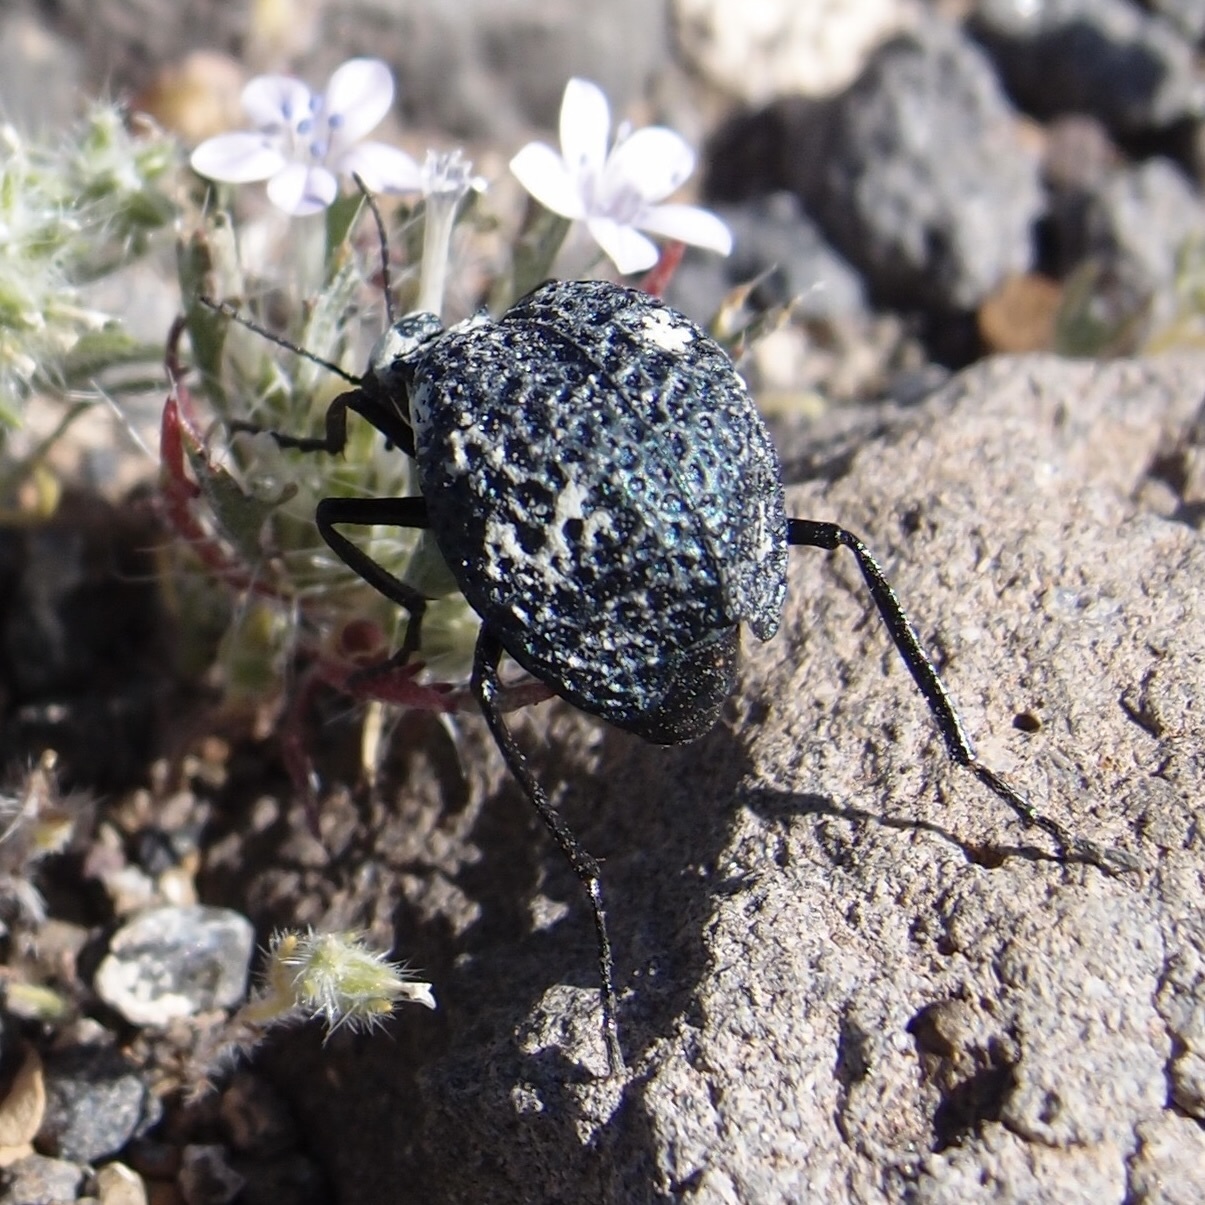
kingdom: Animalia
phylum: Arthropoda
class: Insecta
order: Coleoptera
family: Meloidae
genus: Cysteodemus
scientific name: Cysteodemus armatus
